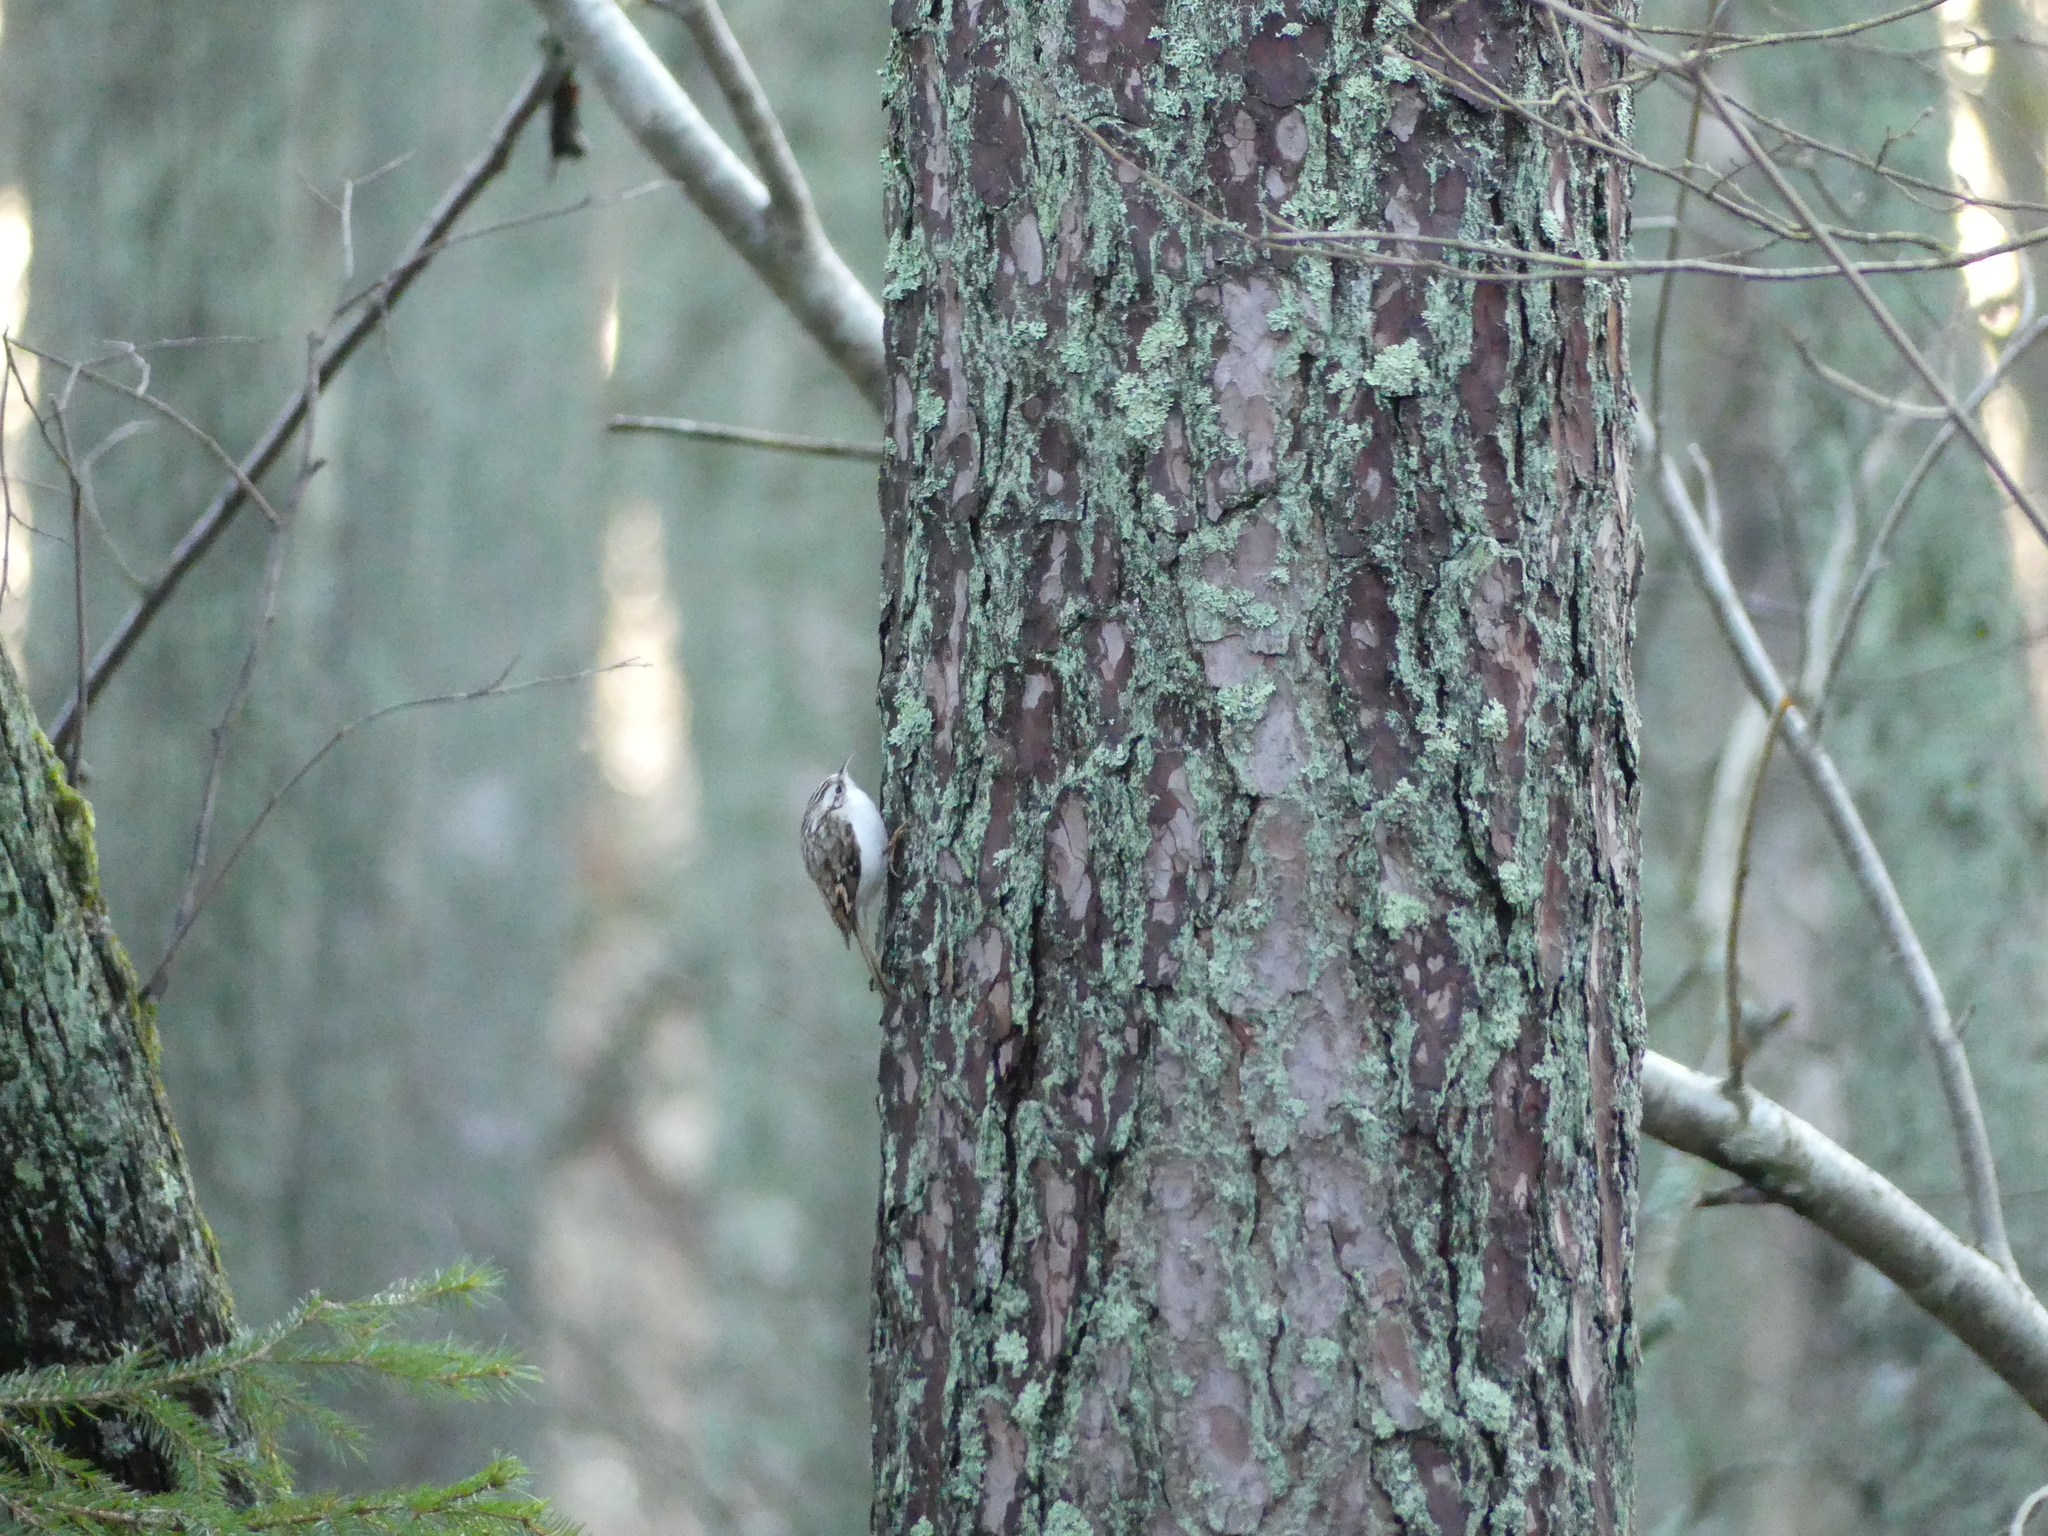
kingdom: Animalia
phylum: Chordata
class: Aves
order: Passeriformes
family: Certhiidae
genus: Certhia
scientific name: Certhia familiaris
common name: Eurasian treecreeper
